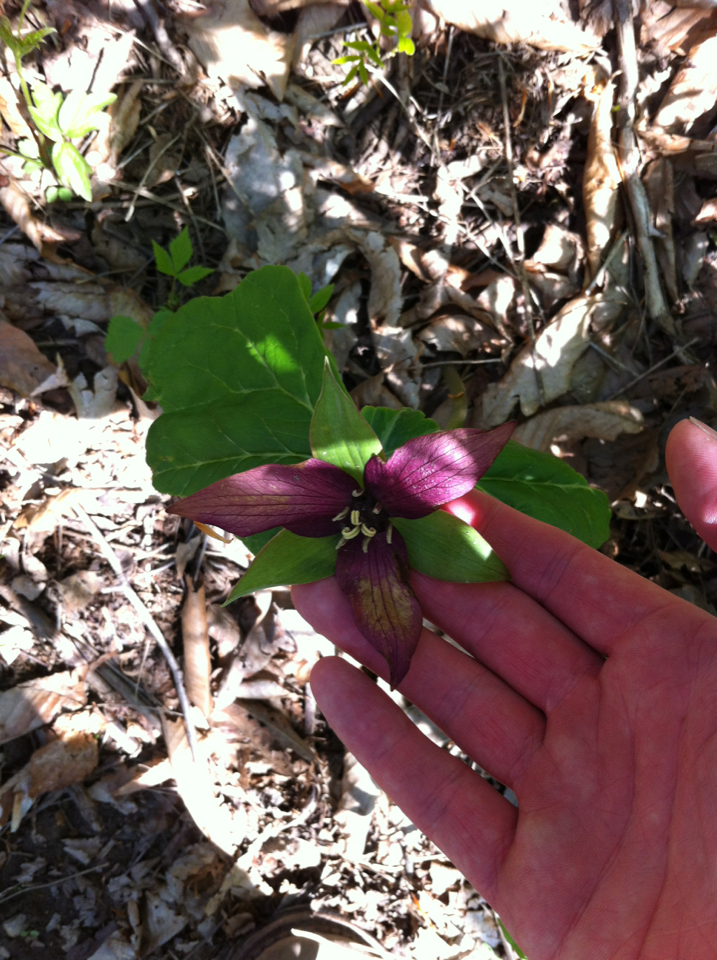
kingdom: Plantae
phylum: Tracheophyta
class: Liliopsida
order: Liliales
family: Melanthiaceae
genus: Trillium
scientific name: Trillium erectum
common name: Purple trillium
